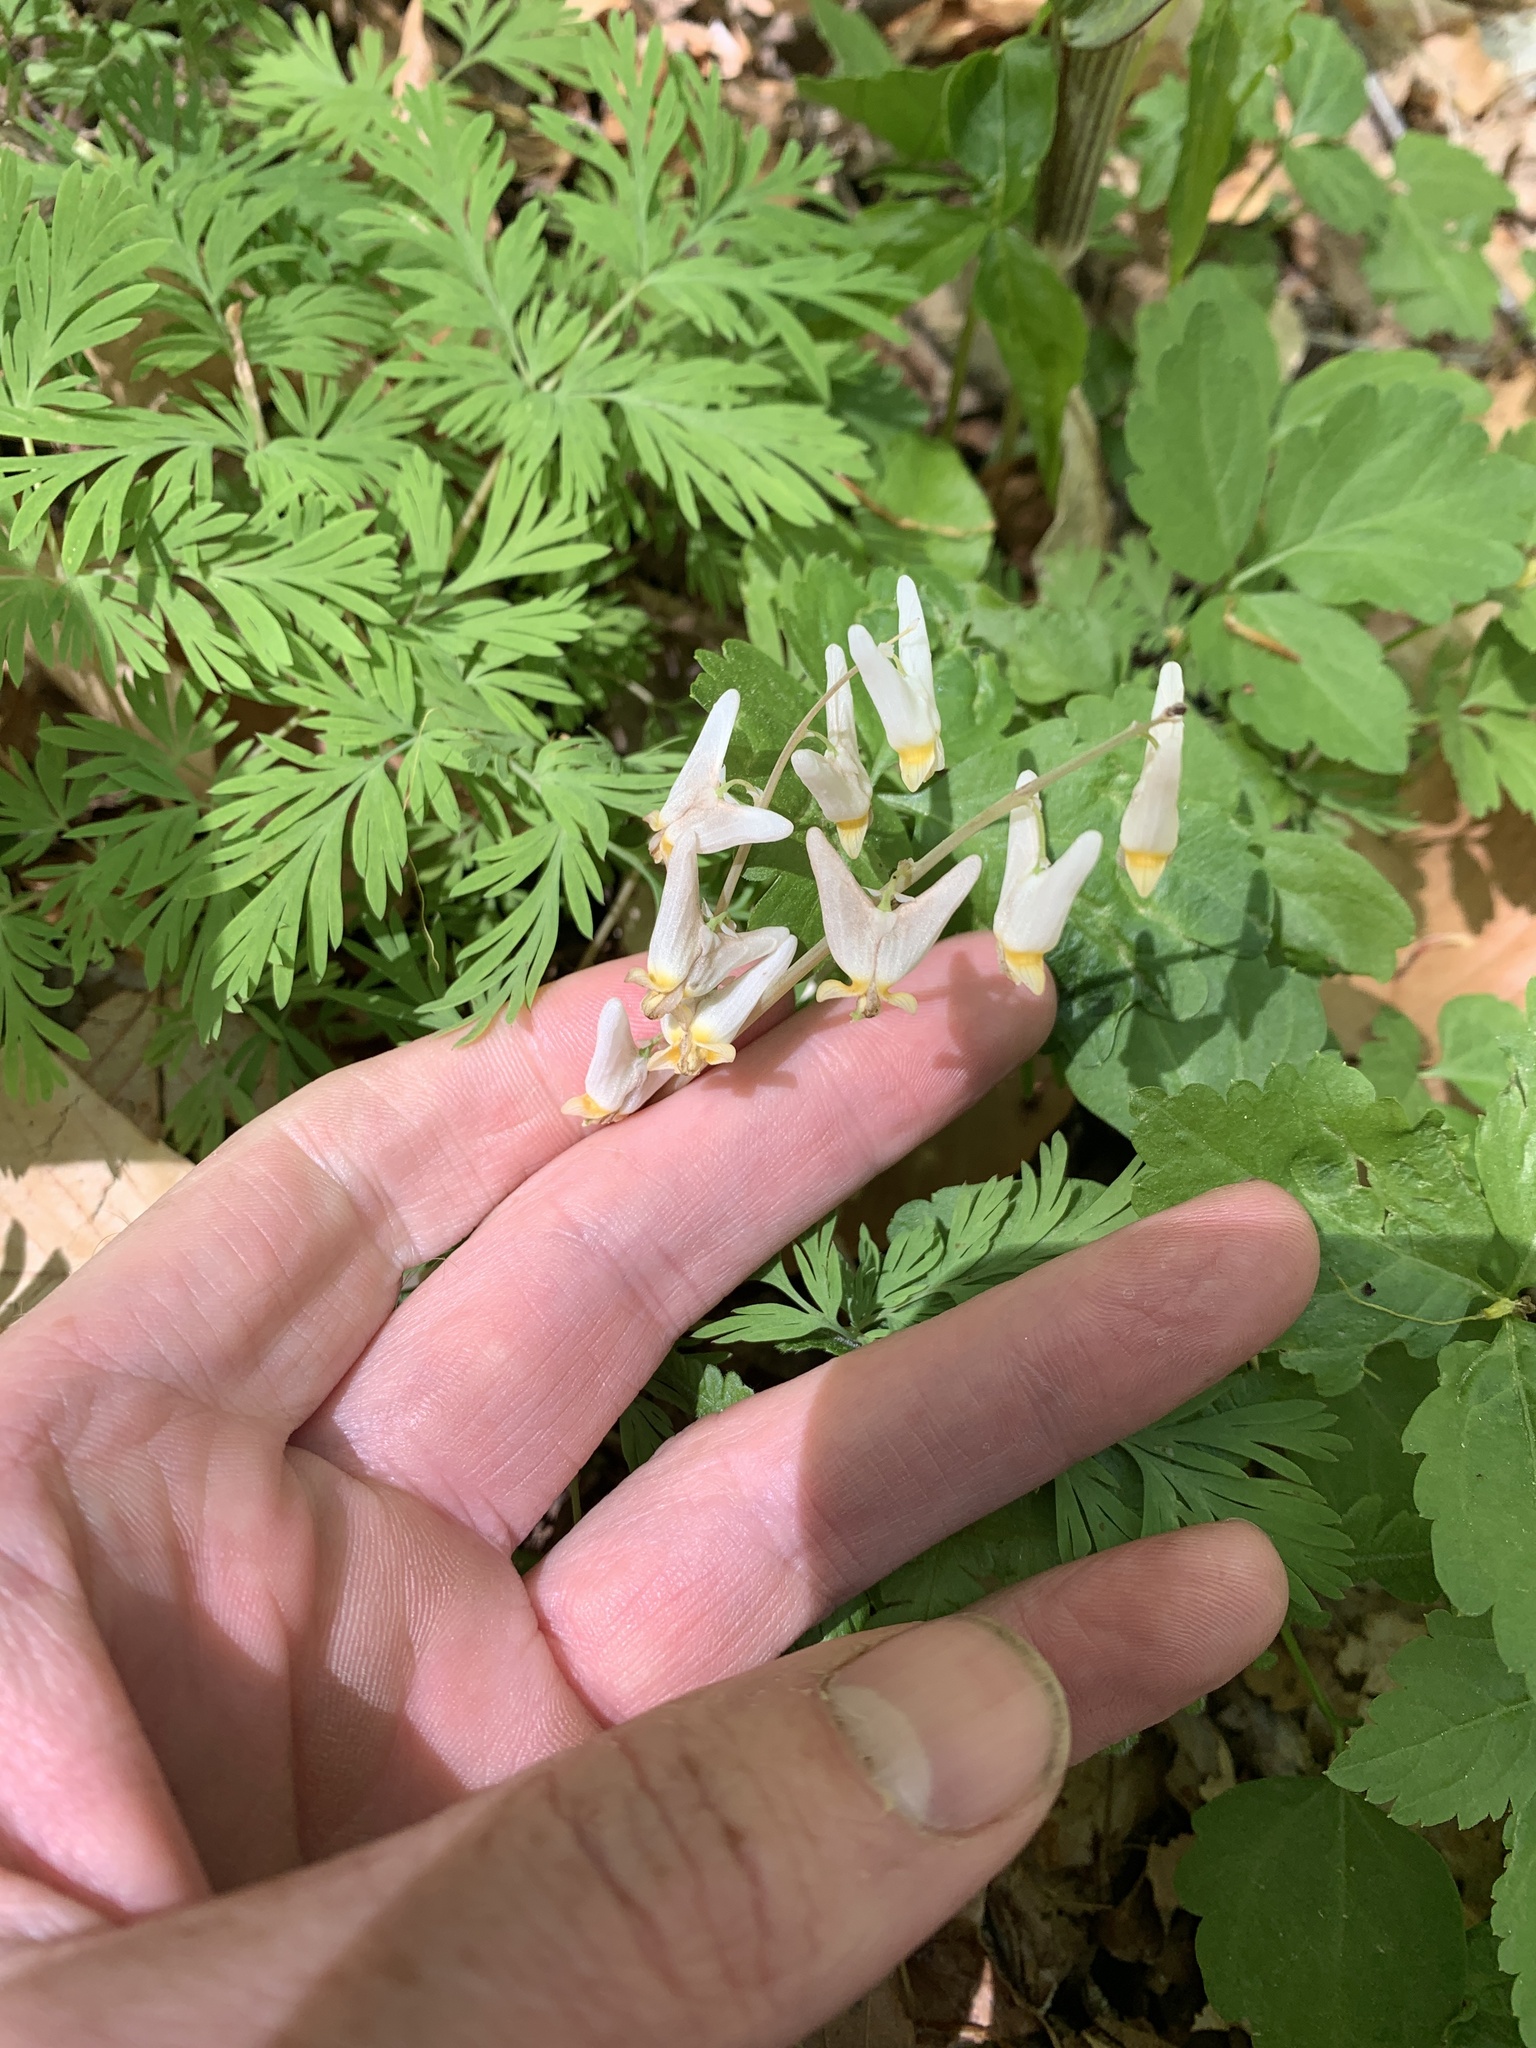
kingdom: Plantae
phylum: Tracheophyta
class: Magnoliopsida
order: Ranunculales
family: Papaveraceae
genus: Dicentra
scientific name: Dicentra cucullaria
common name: Dutchman's breeches
